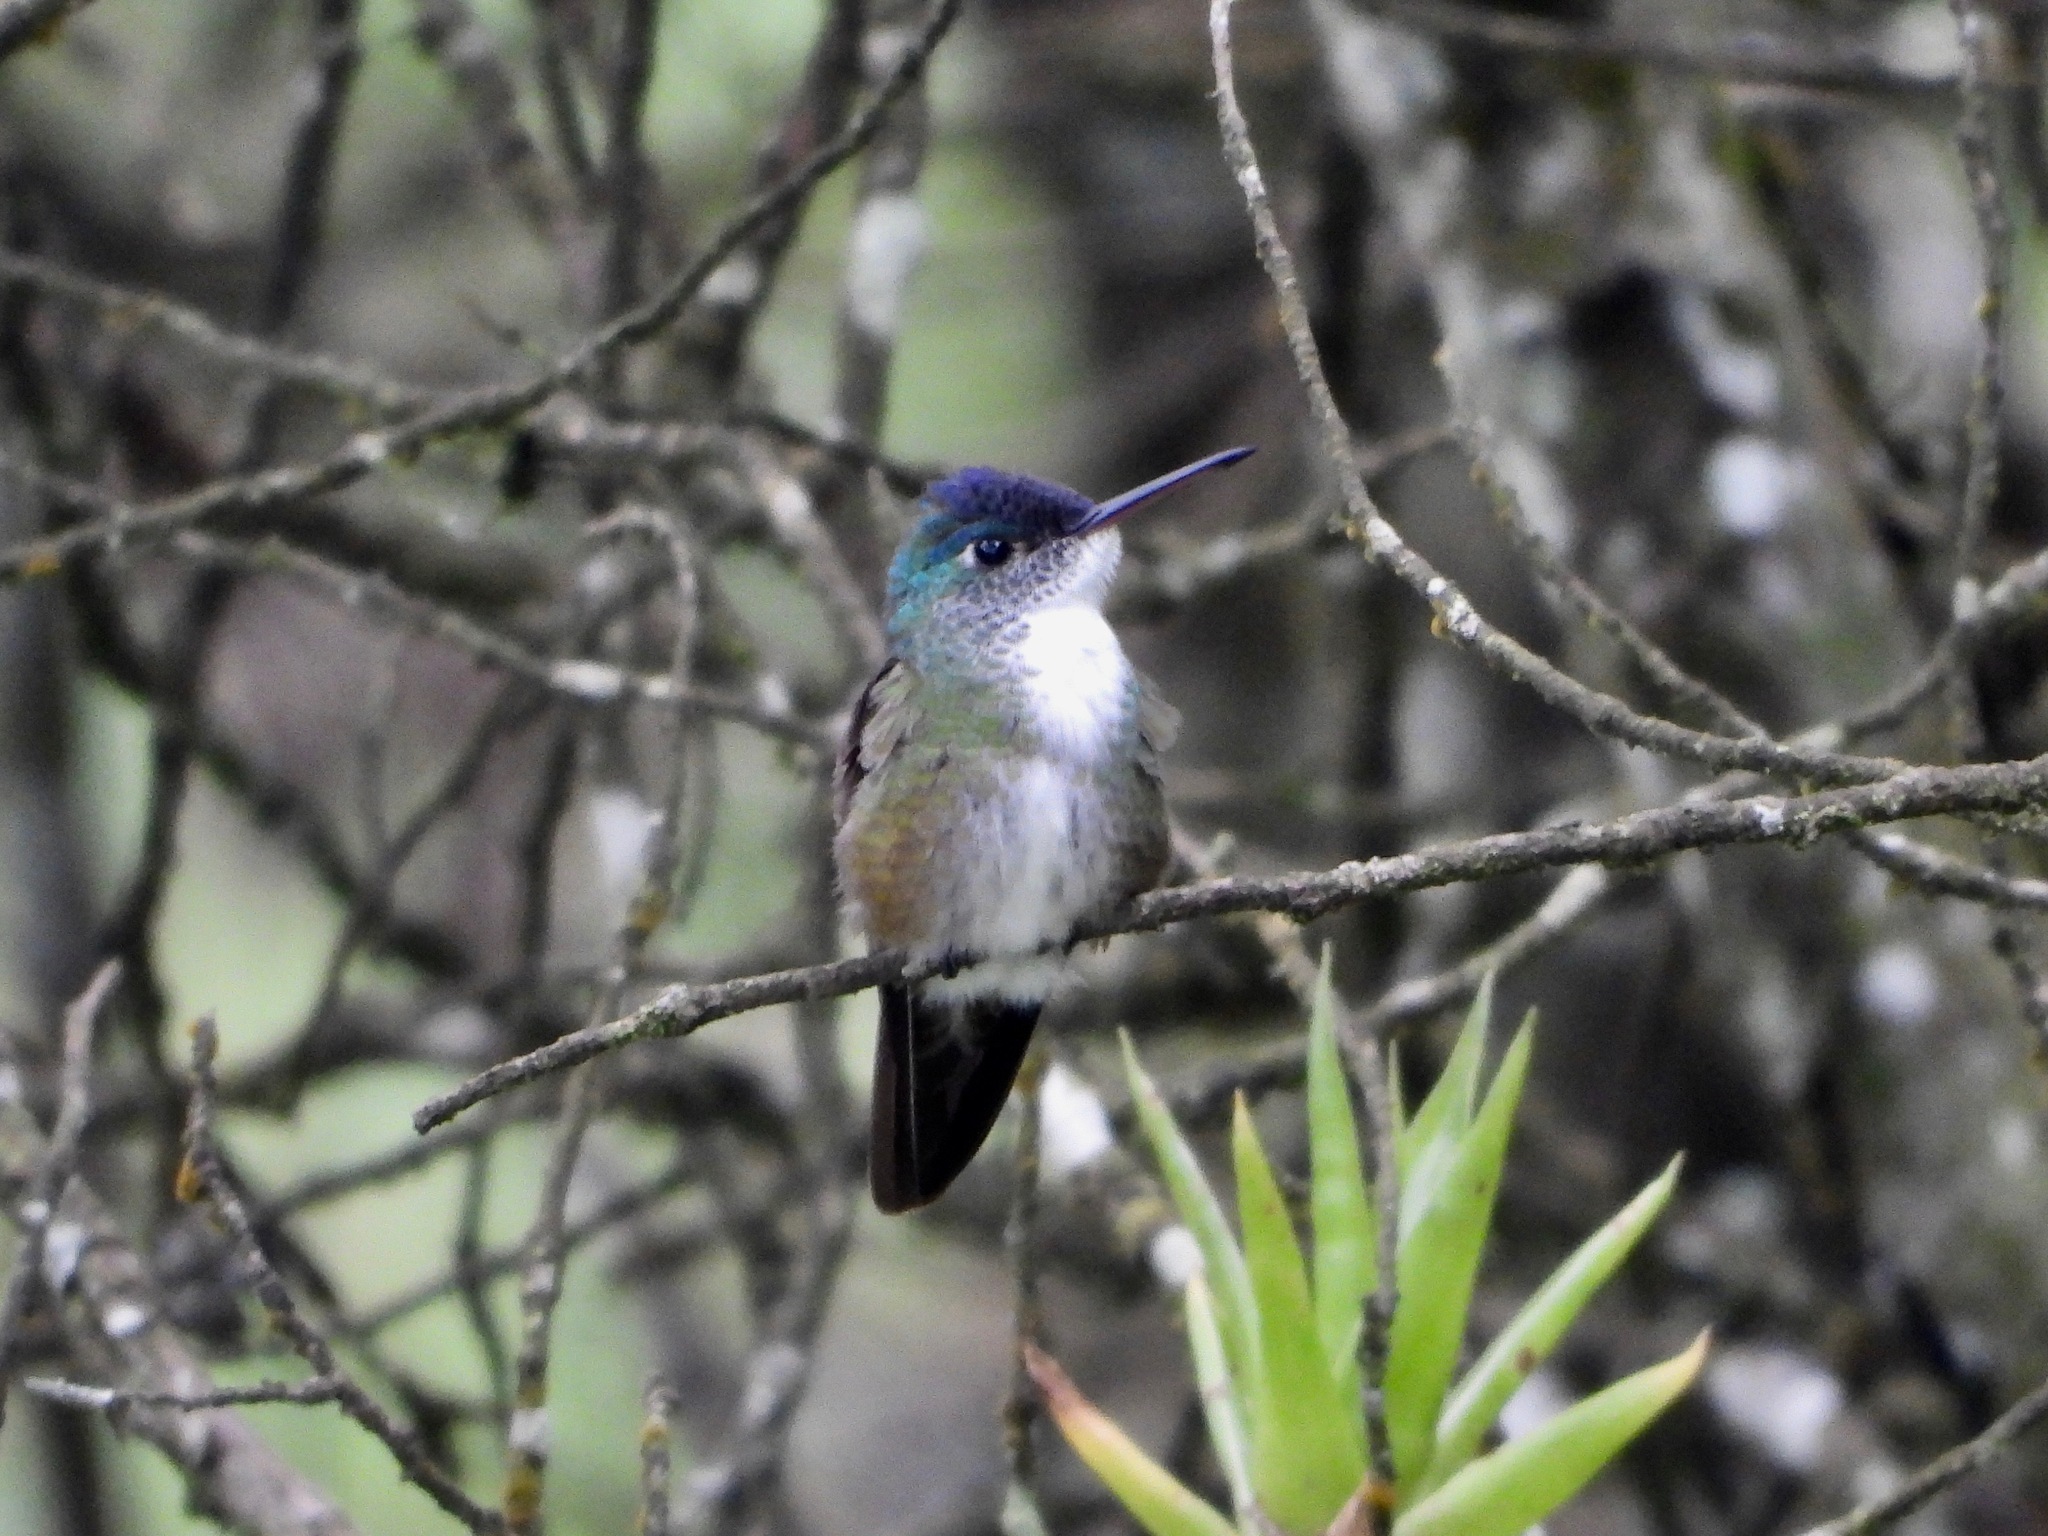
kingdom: Animalia
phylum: Chordata
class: Aves
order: Apodiformes
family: Trochilidae
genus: Saucerottia
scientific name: Saucerottia cyanocephala
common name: Azure-crowned hummingbird
